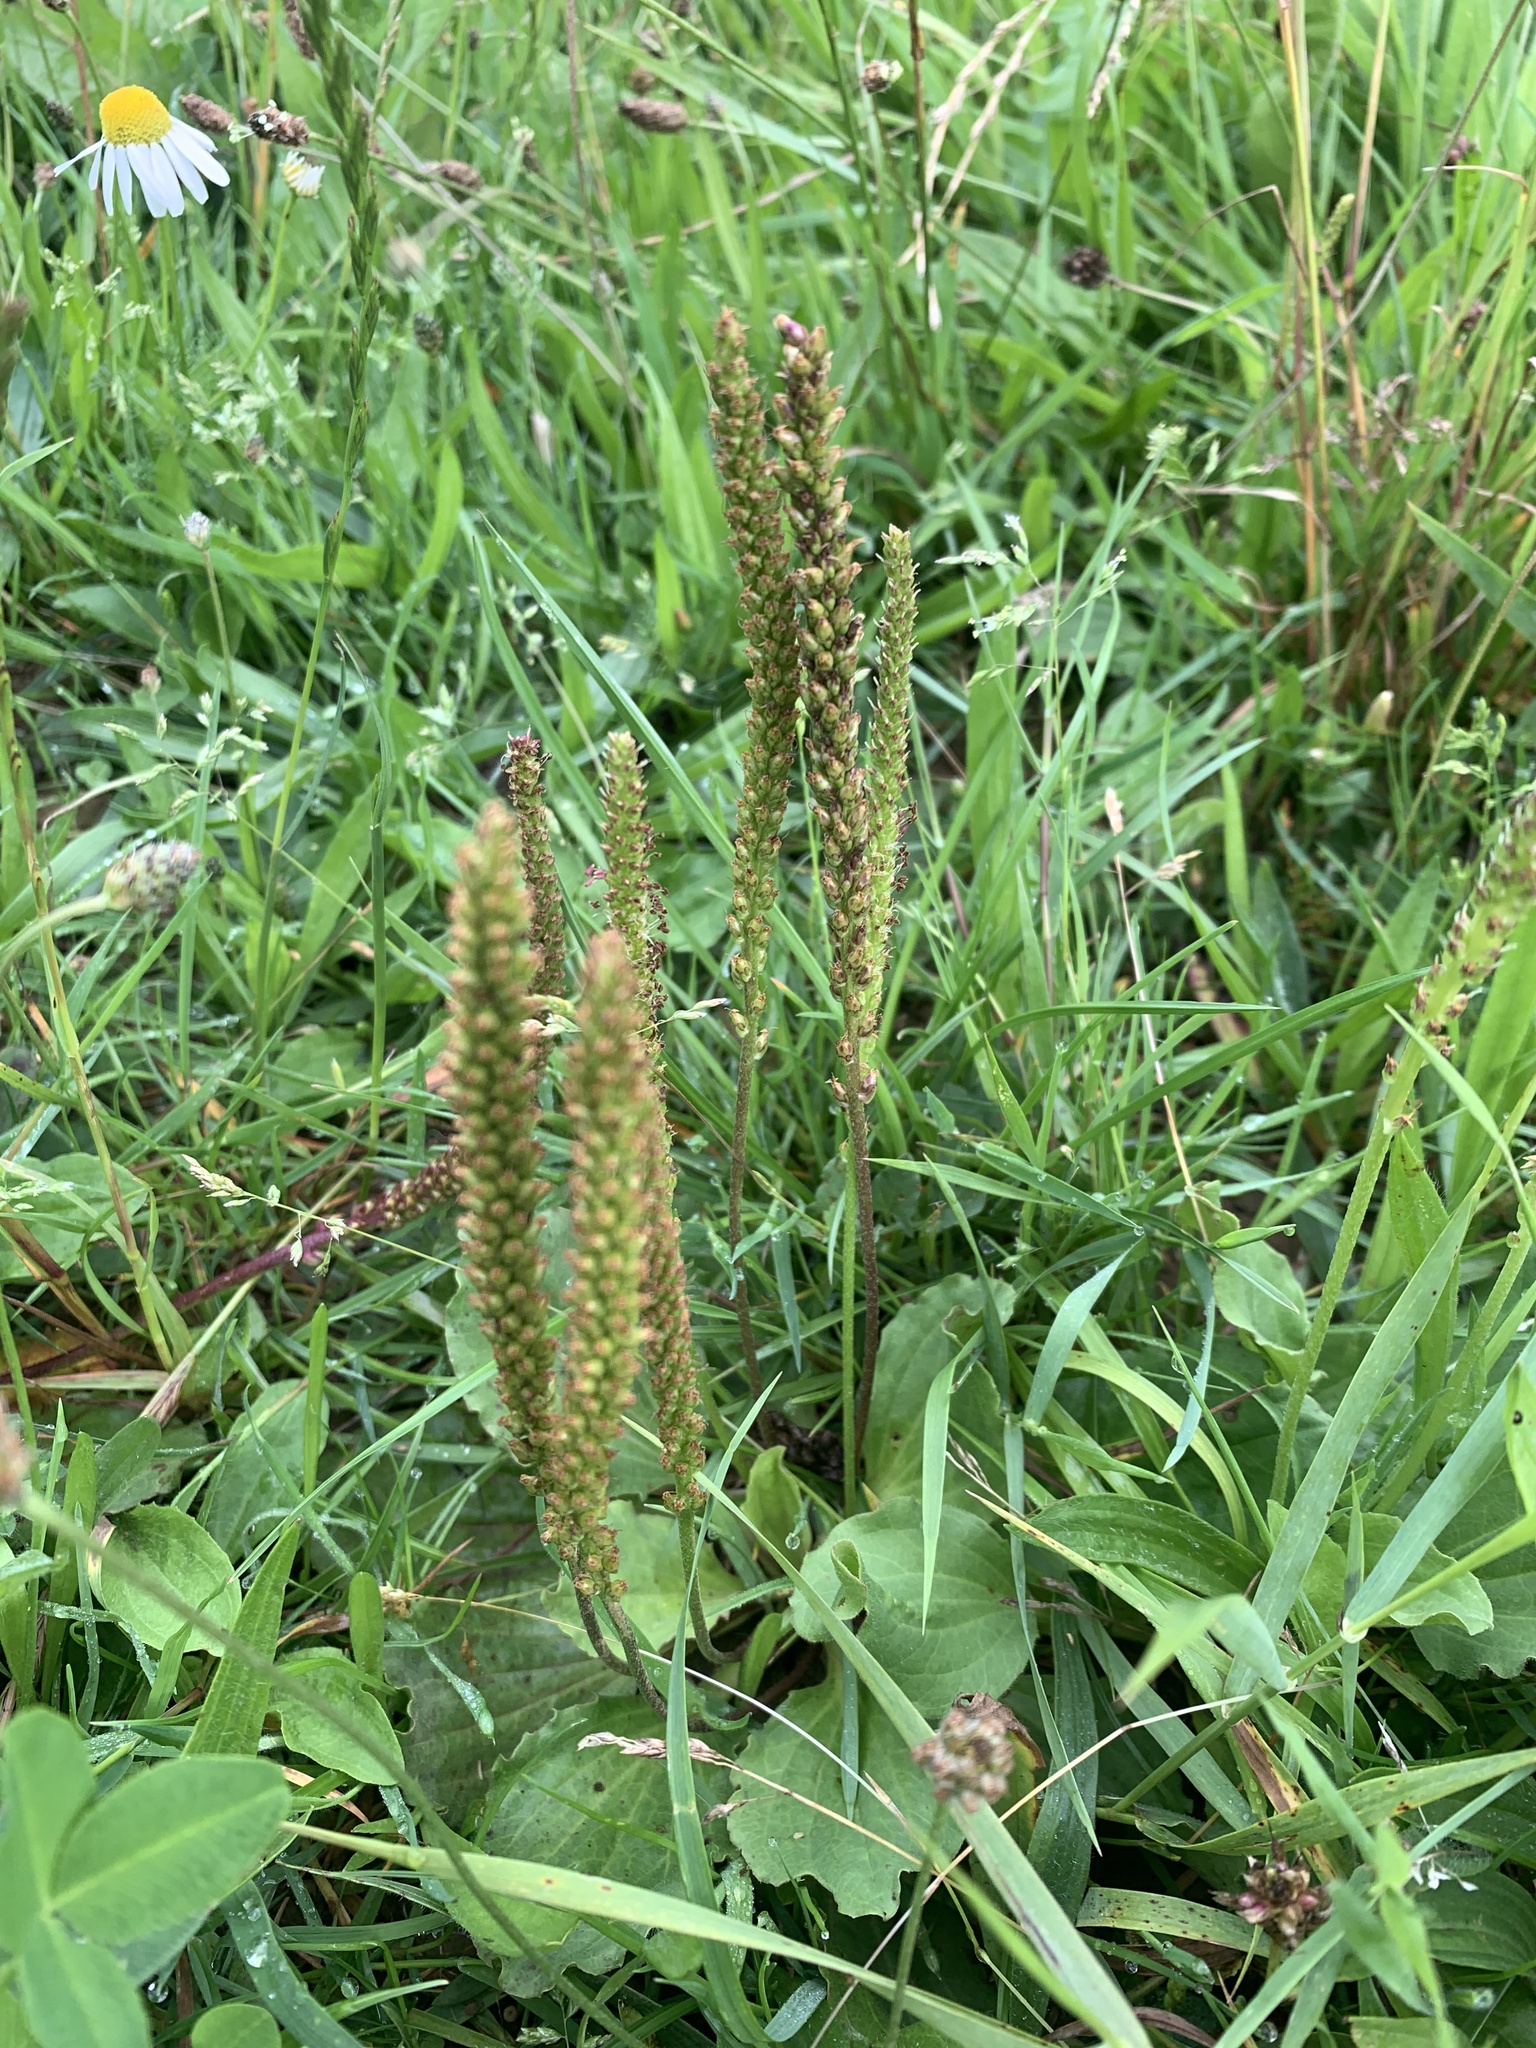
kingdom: Plantae
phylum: Tracheophyta
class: Magnoliopsida
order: Lamiales
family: Plantaginaceae
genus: Plantago
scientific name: Plantago major
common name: Common plantain
